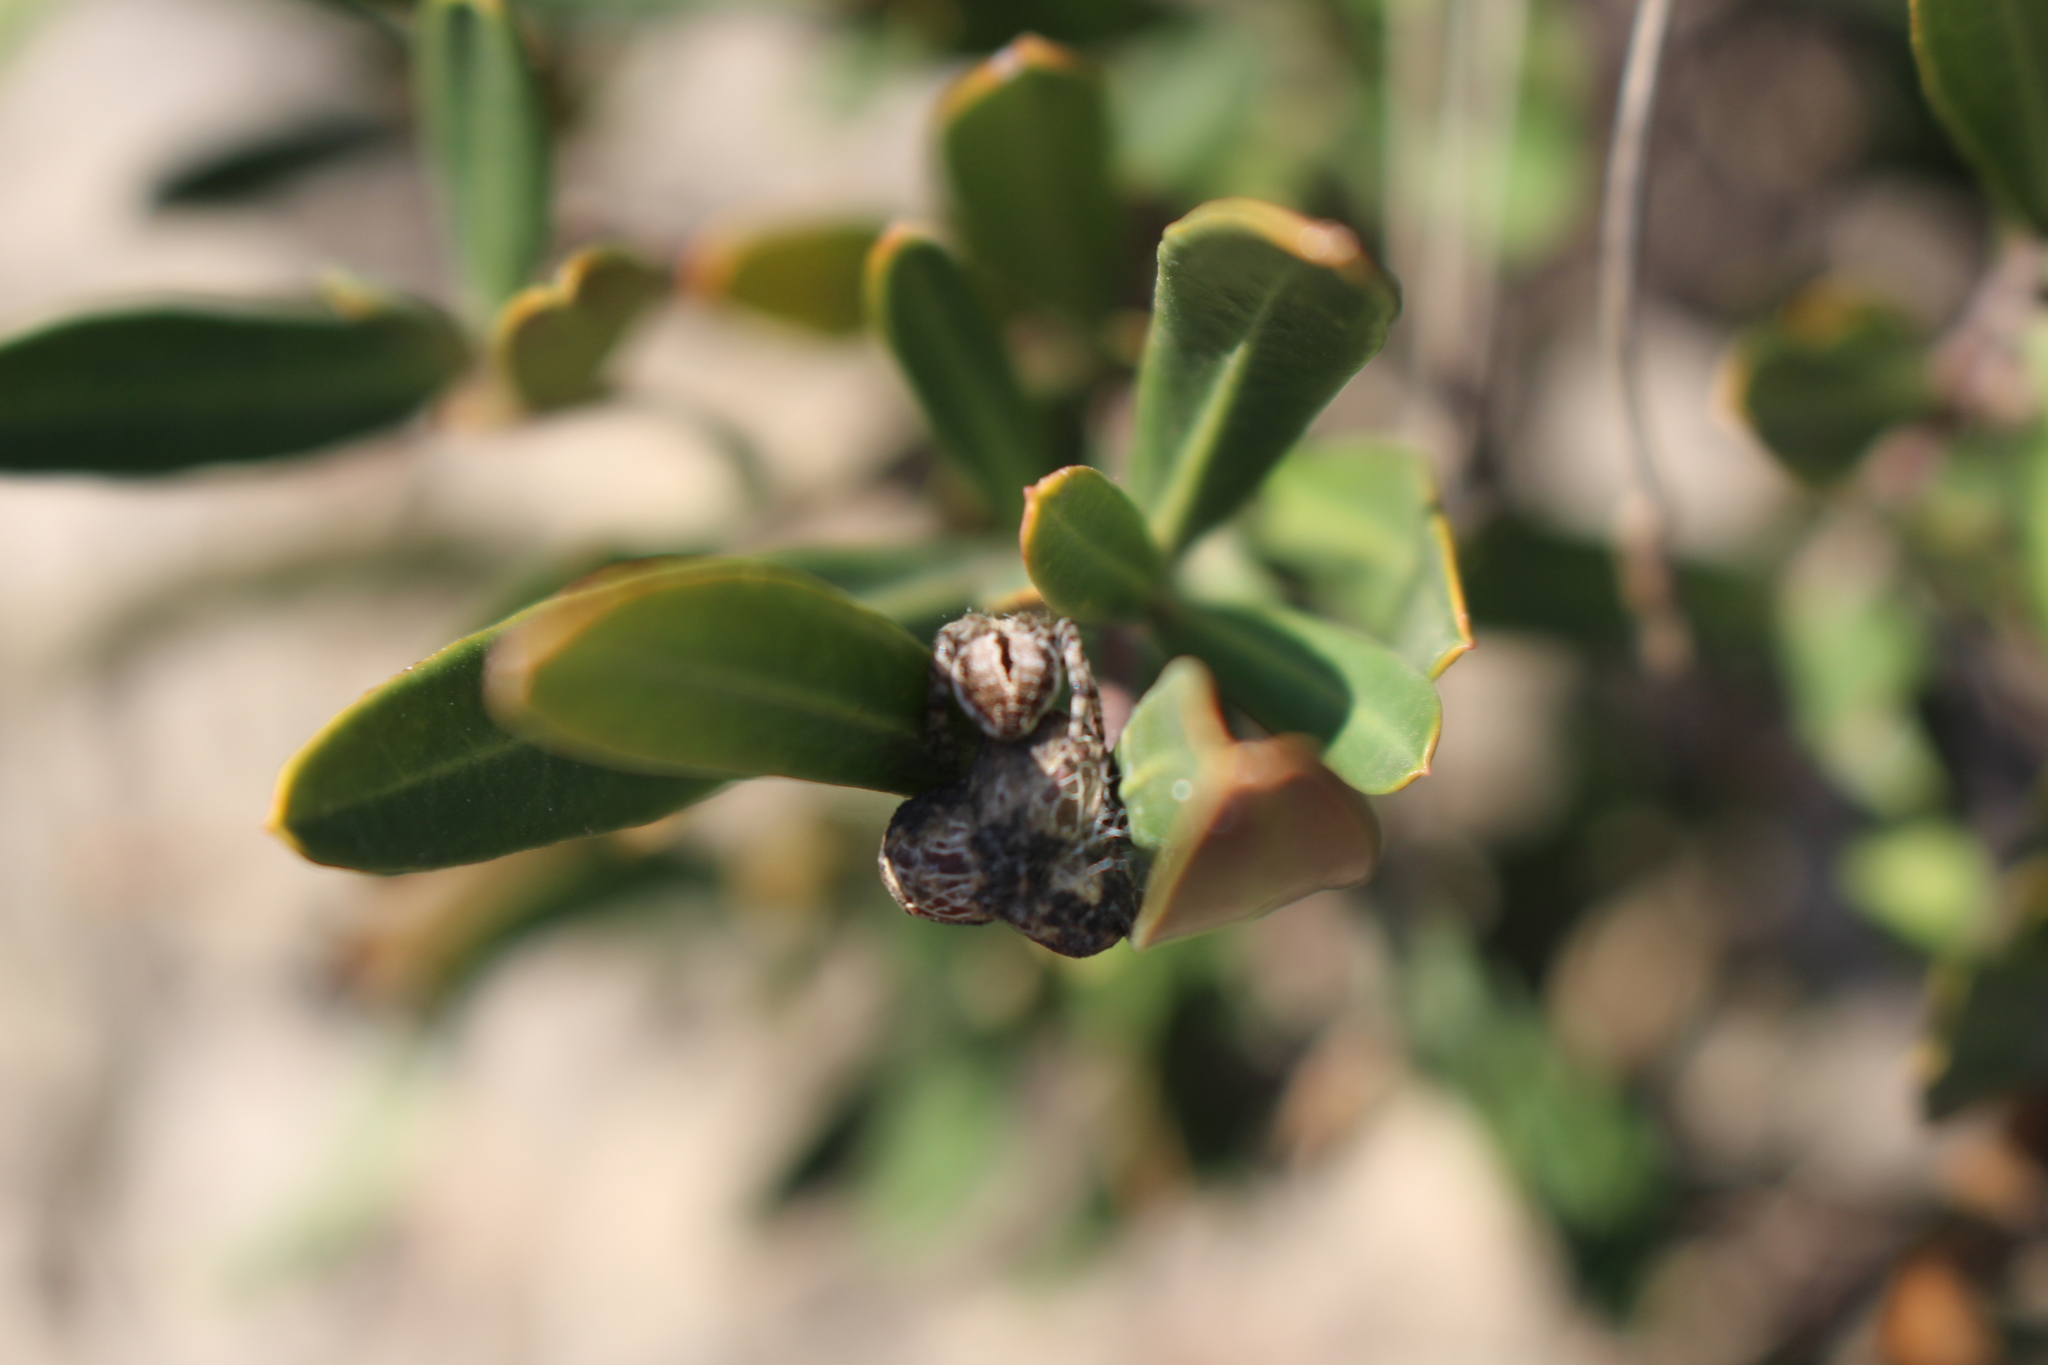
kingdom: Animalia
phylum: Arthropoda
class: Arachnida
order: Araneae
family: Araneidae
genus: Agalenatea
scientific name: Agalenatea redii
